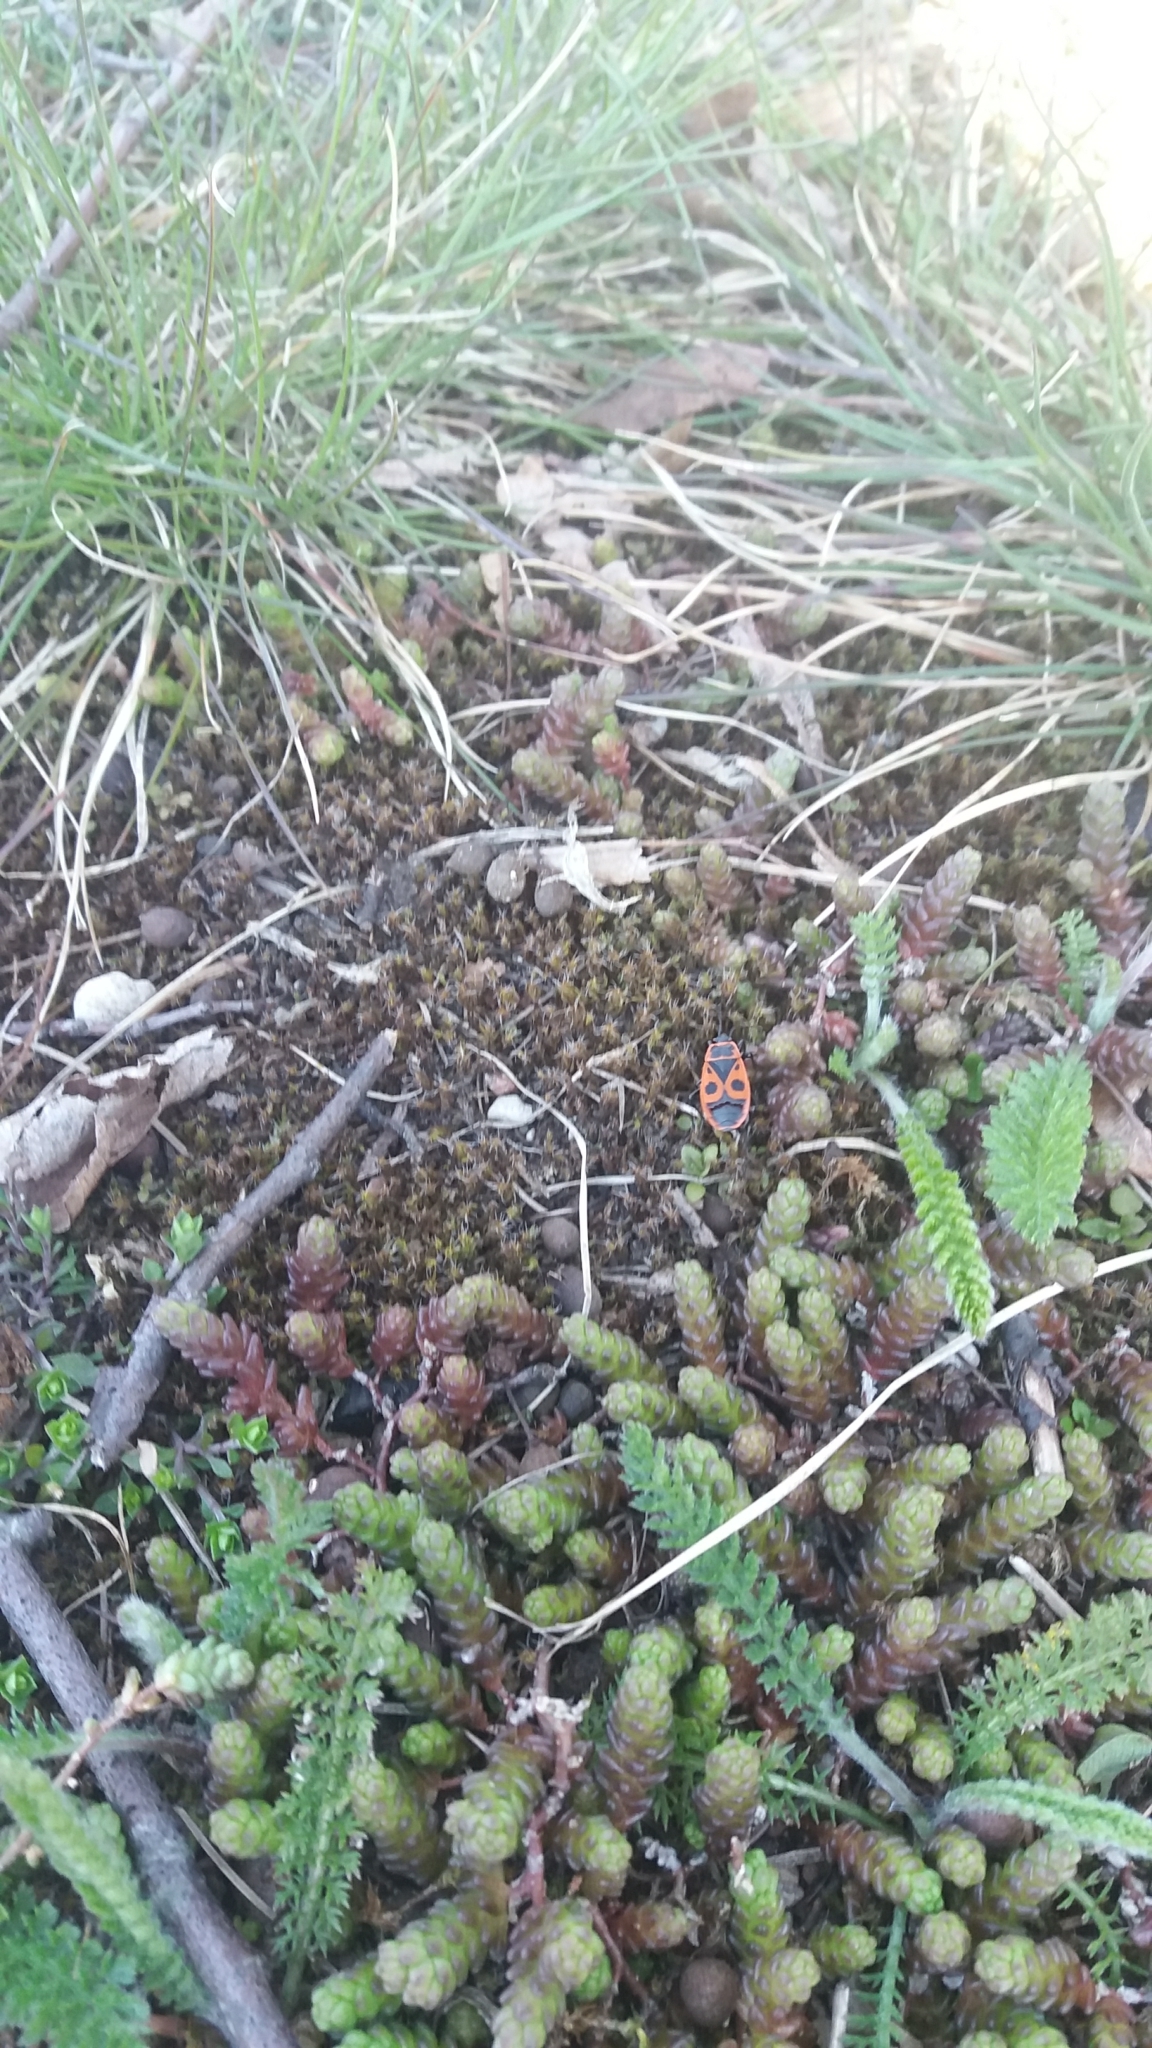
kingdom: Animalia
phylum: Arthropoda
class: Insecta
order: Hemiptera
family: Pyrrhocoridae
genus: Pyrrhocoris
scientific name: Pyrrhocoris apterus
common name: Firebug
